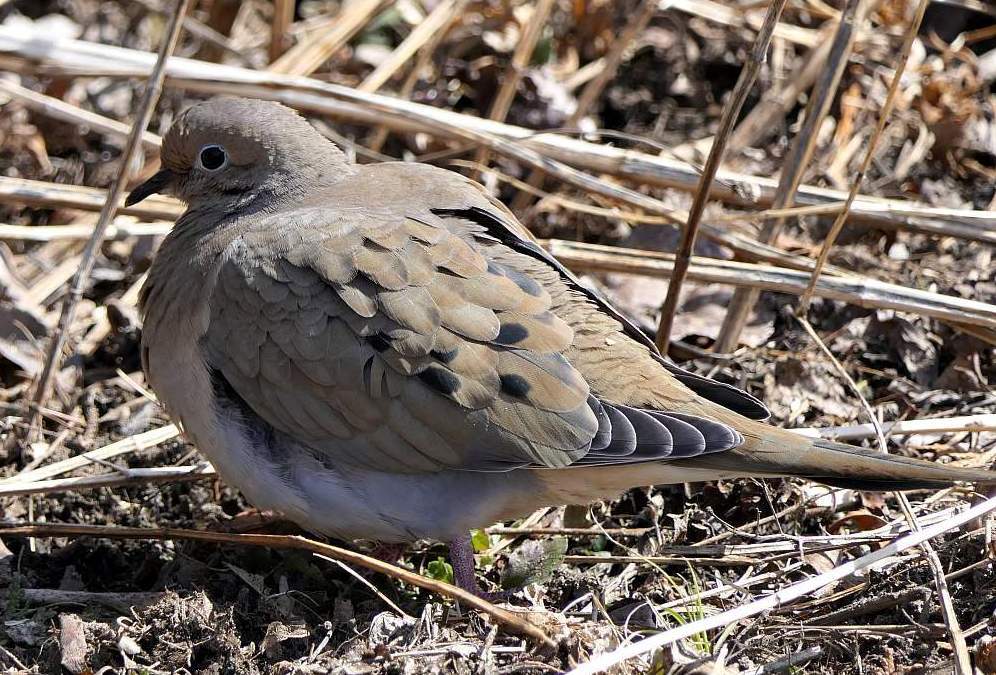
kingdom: Animalia
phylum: Chordata
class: Aves
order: Columbiformes
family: Columbidae
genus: Zenaida
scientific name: Zenaida macroura
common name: Mourning dove
